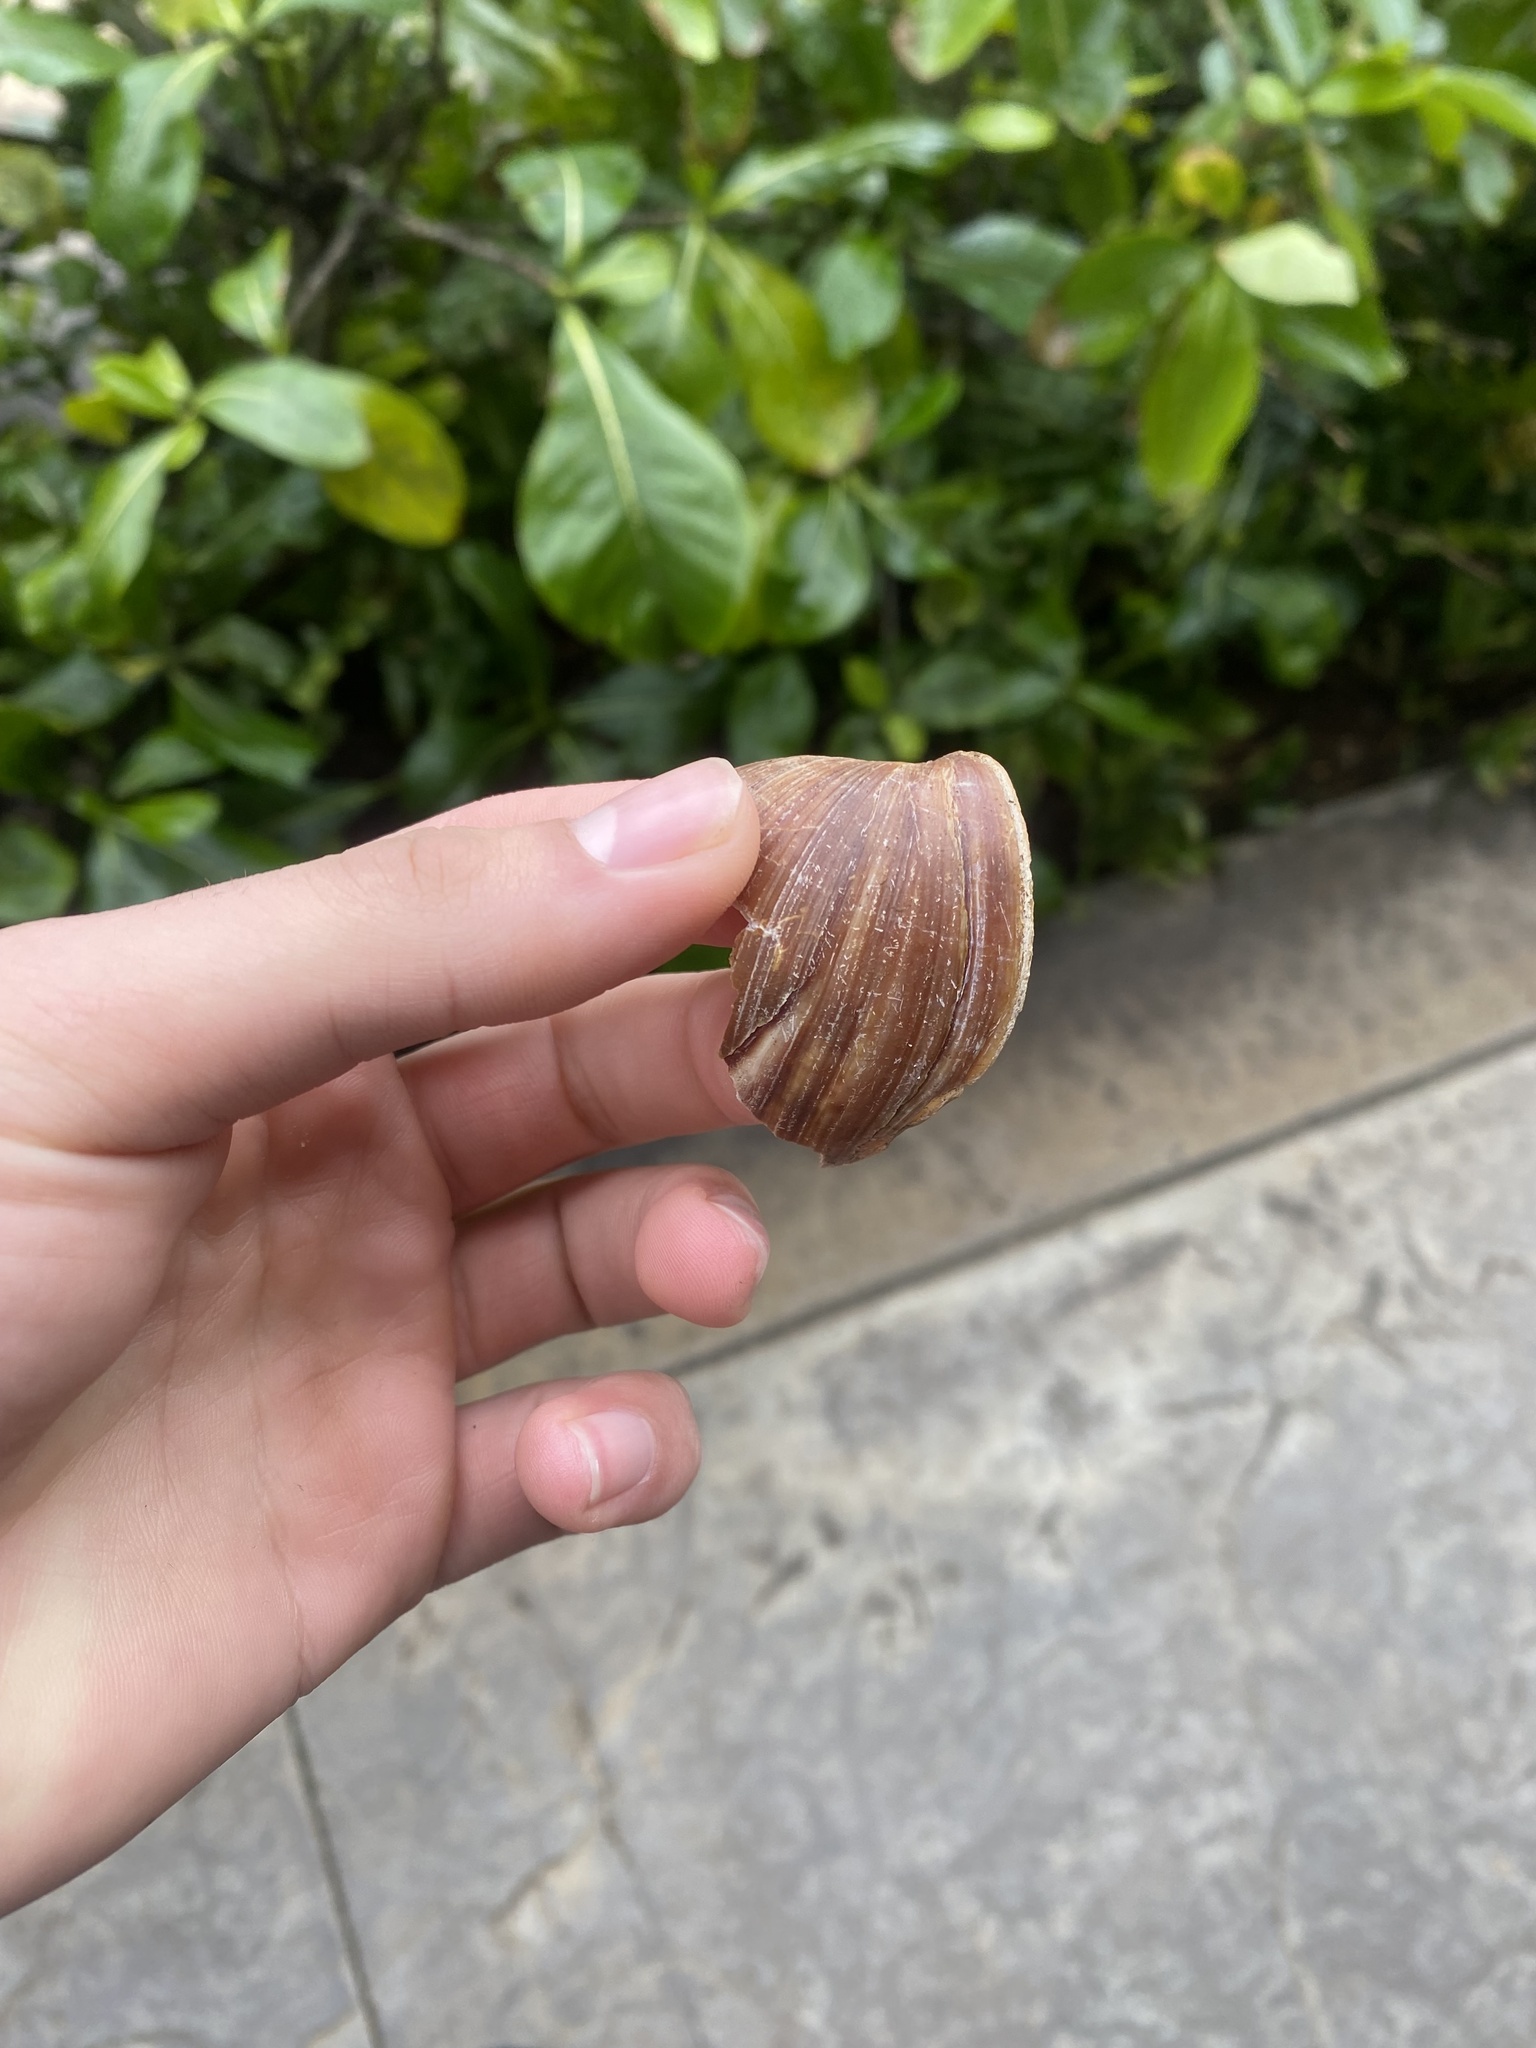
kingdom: Animalia
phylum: Mollusca
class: Gastropoda
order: Stylommatophora
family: Achatinidae
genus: Lissachatina
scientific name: Lissachatina fulica
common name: Giant african snail
